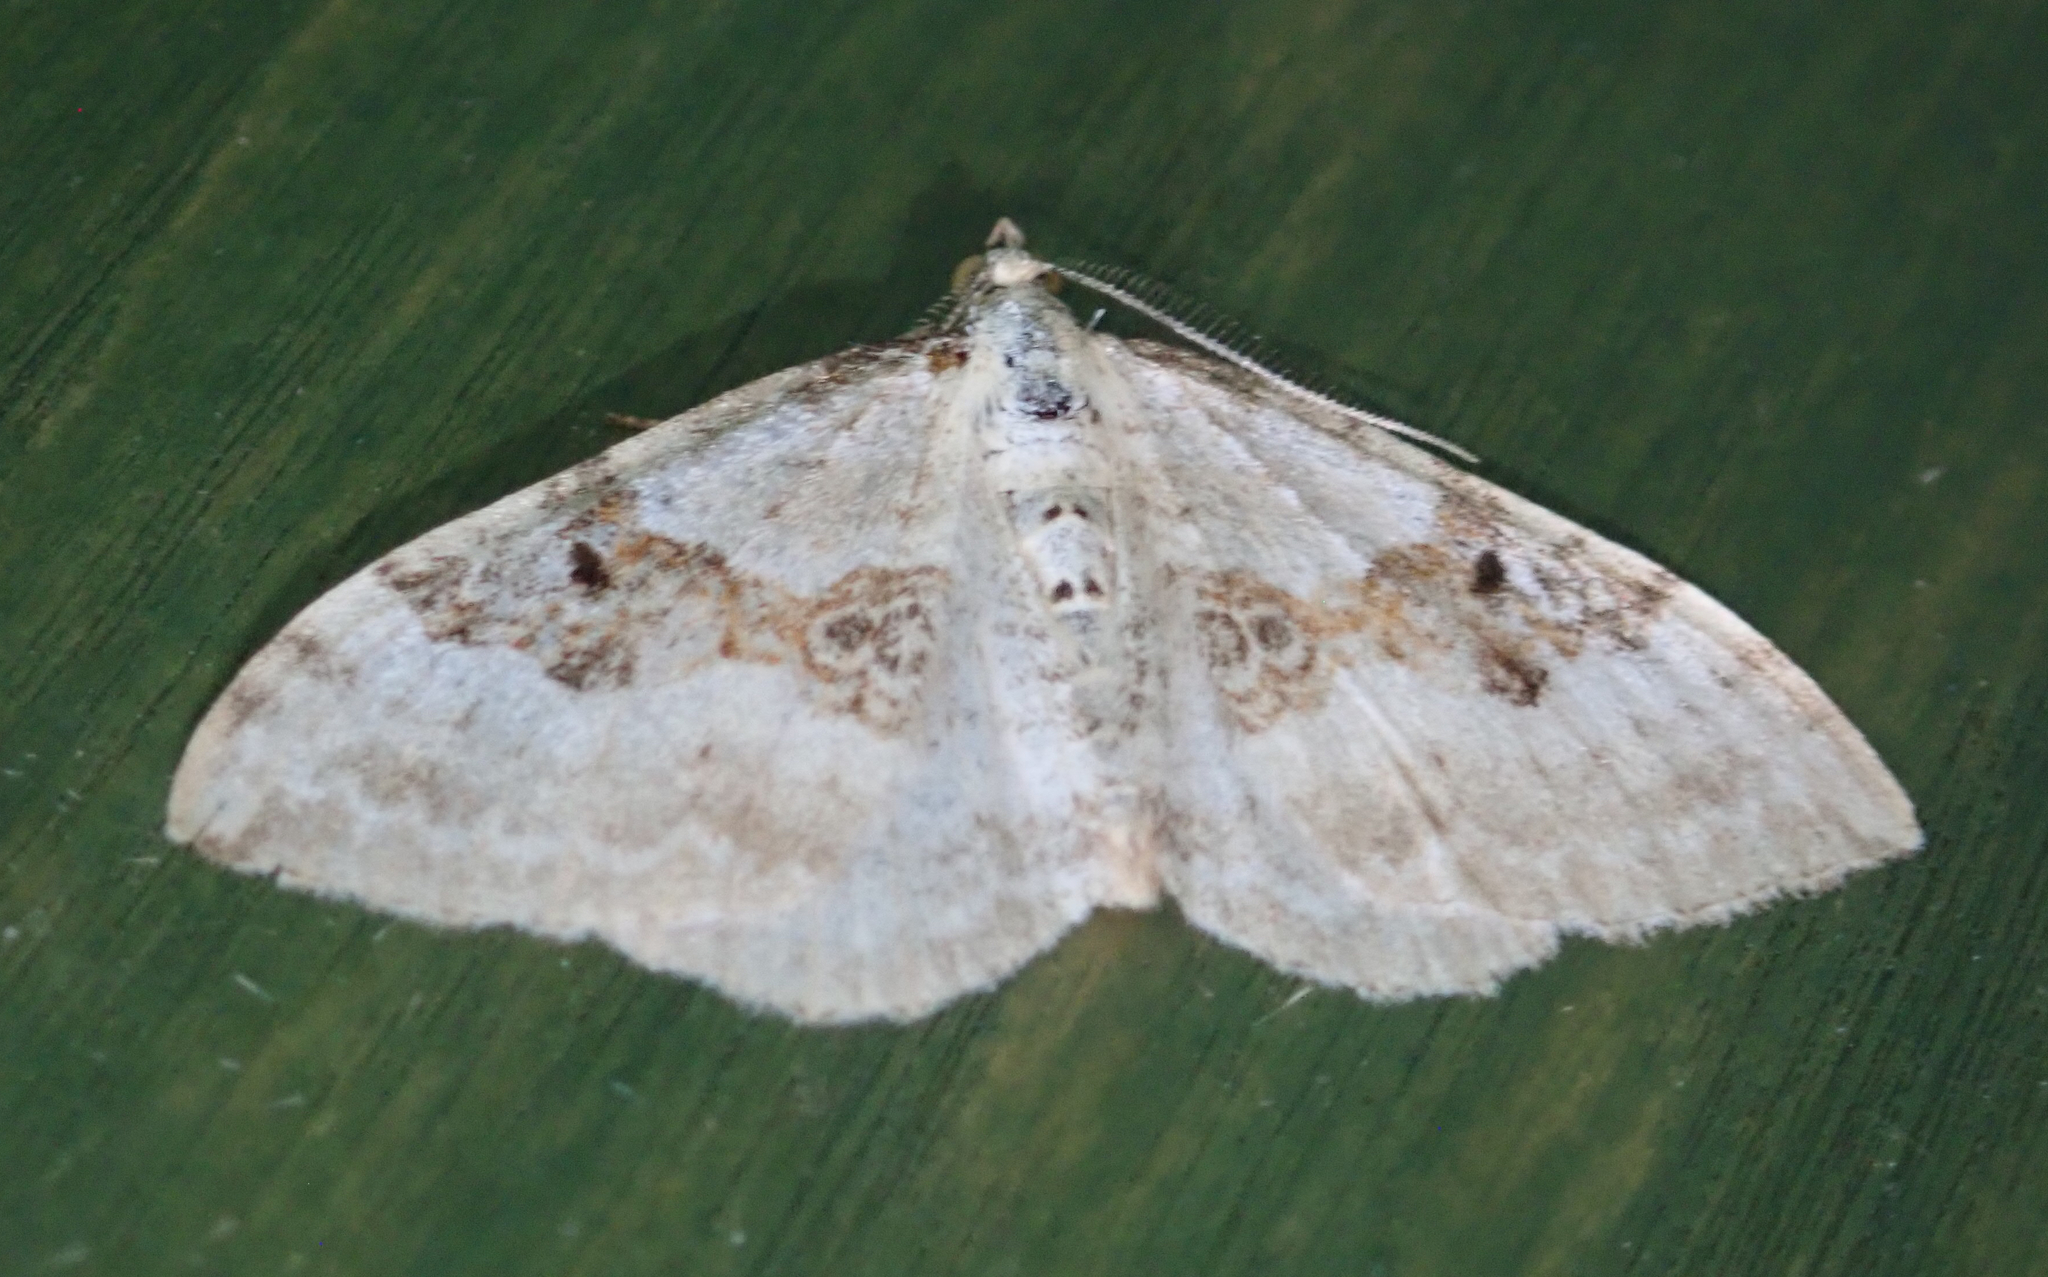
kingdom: Animalia
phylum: Arthropoda
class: Insecta
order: Lepidoptera
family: Geometridae
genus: Xanthorhoe
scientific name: Xanthorhoe montanata
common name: Silver-ground carpet
